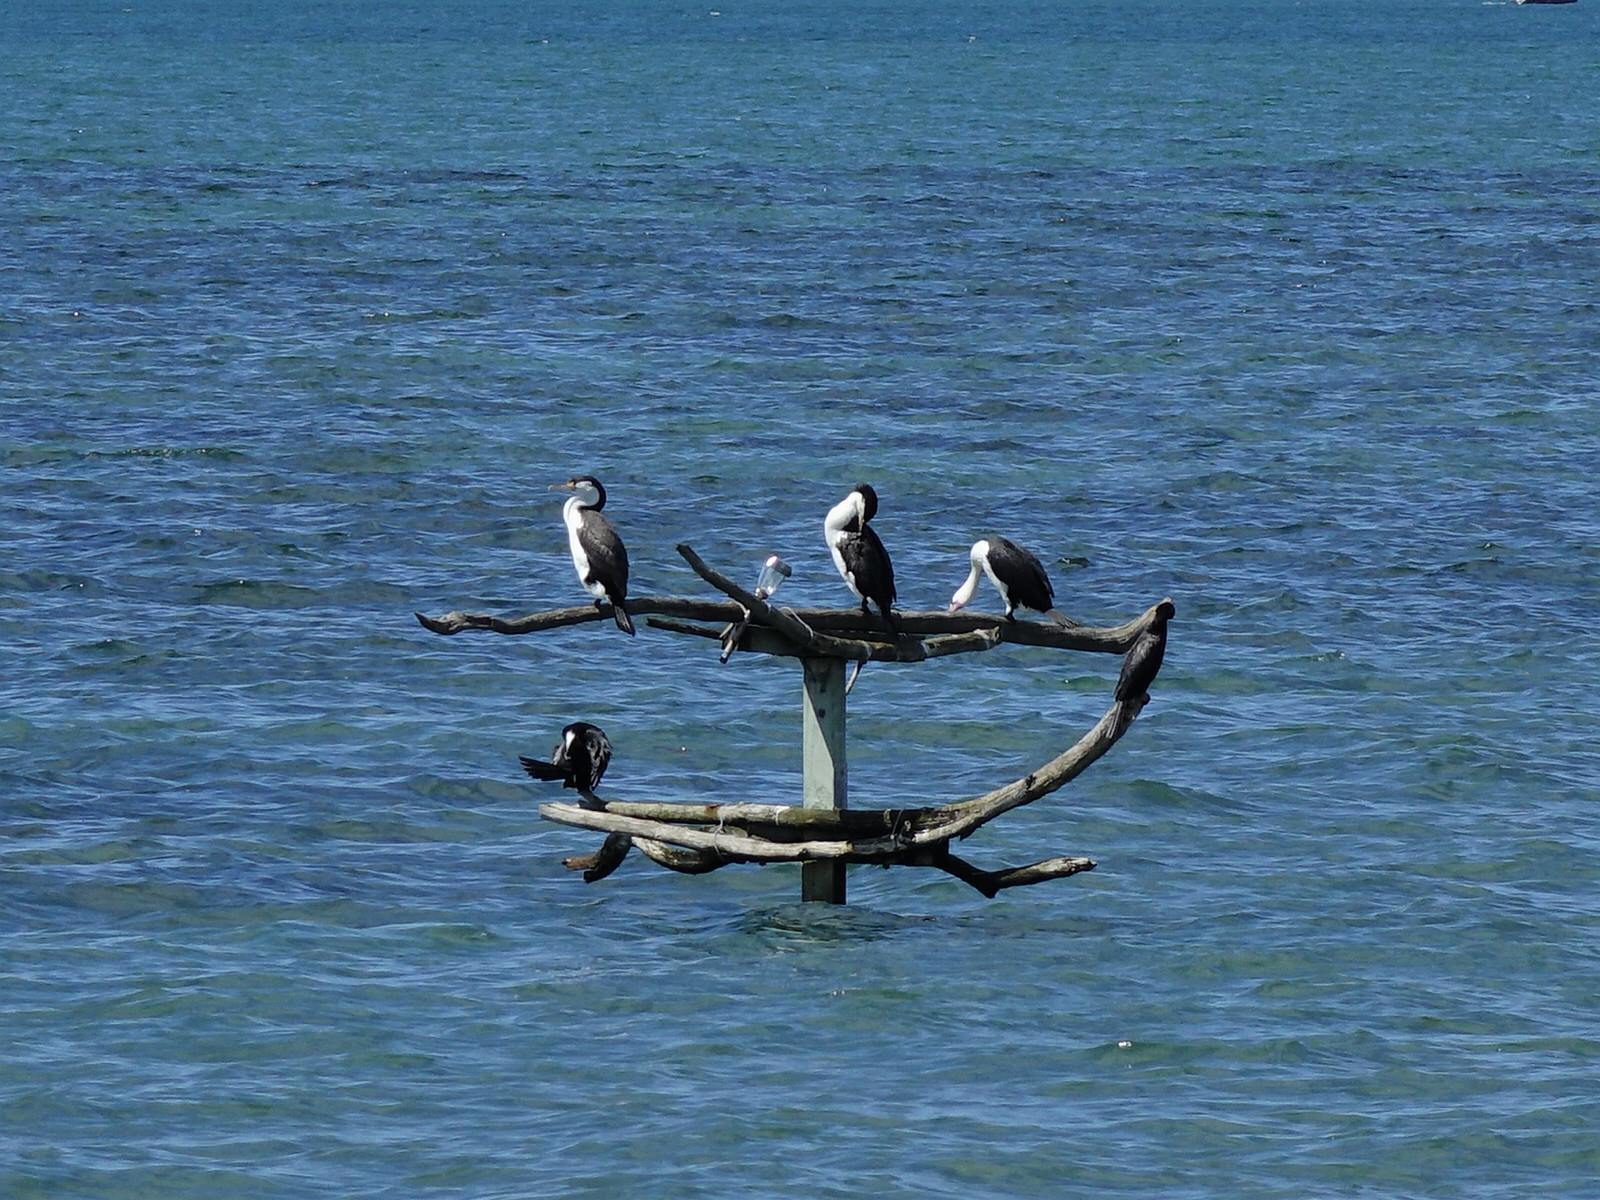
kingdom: Animalia
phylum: Chordata
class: Aves
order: Suliformes
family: Phalacrocoracidae
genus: Phalacrocorax
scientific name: Phalacrocorax varius
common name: Pied cormorant
